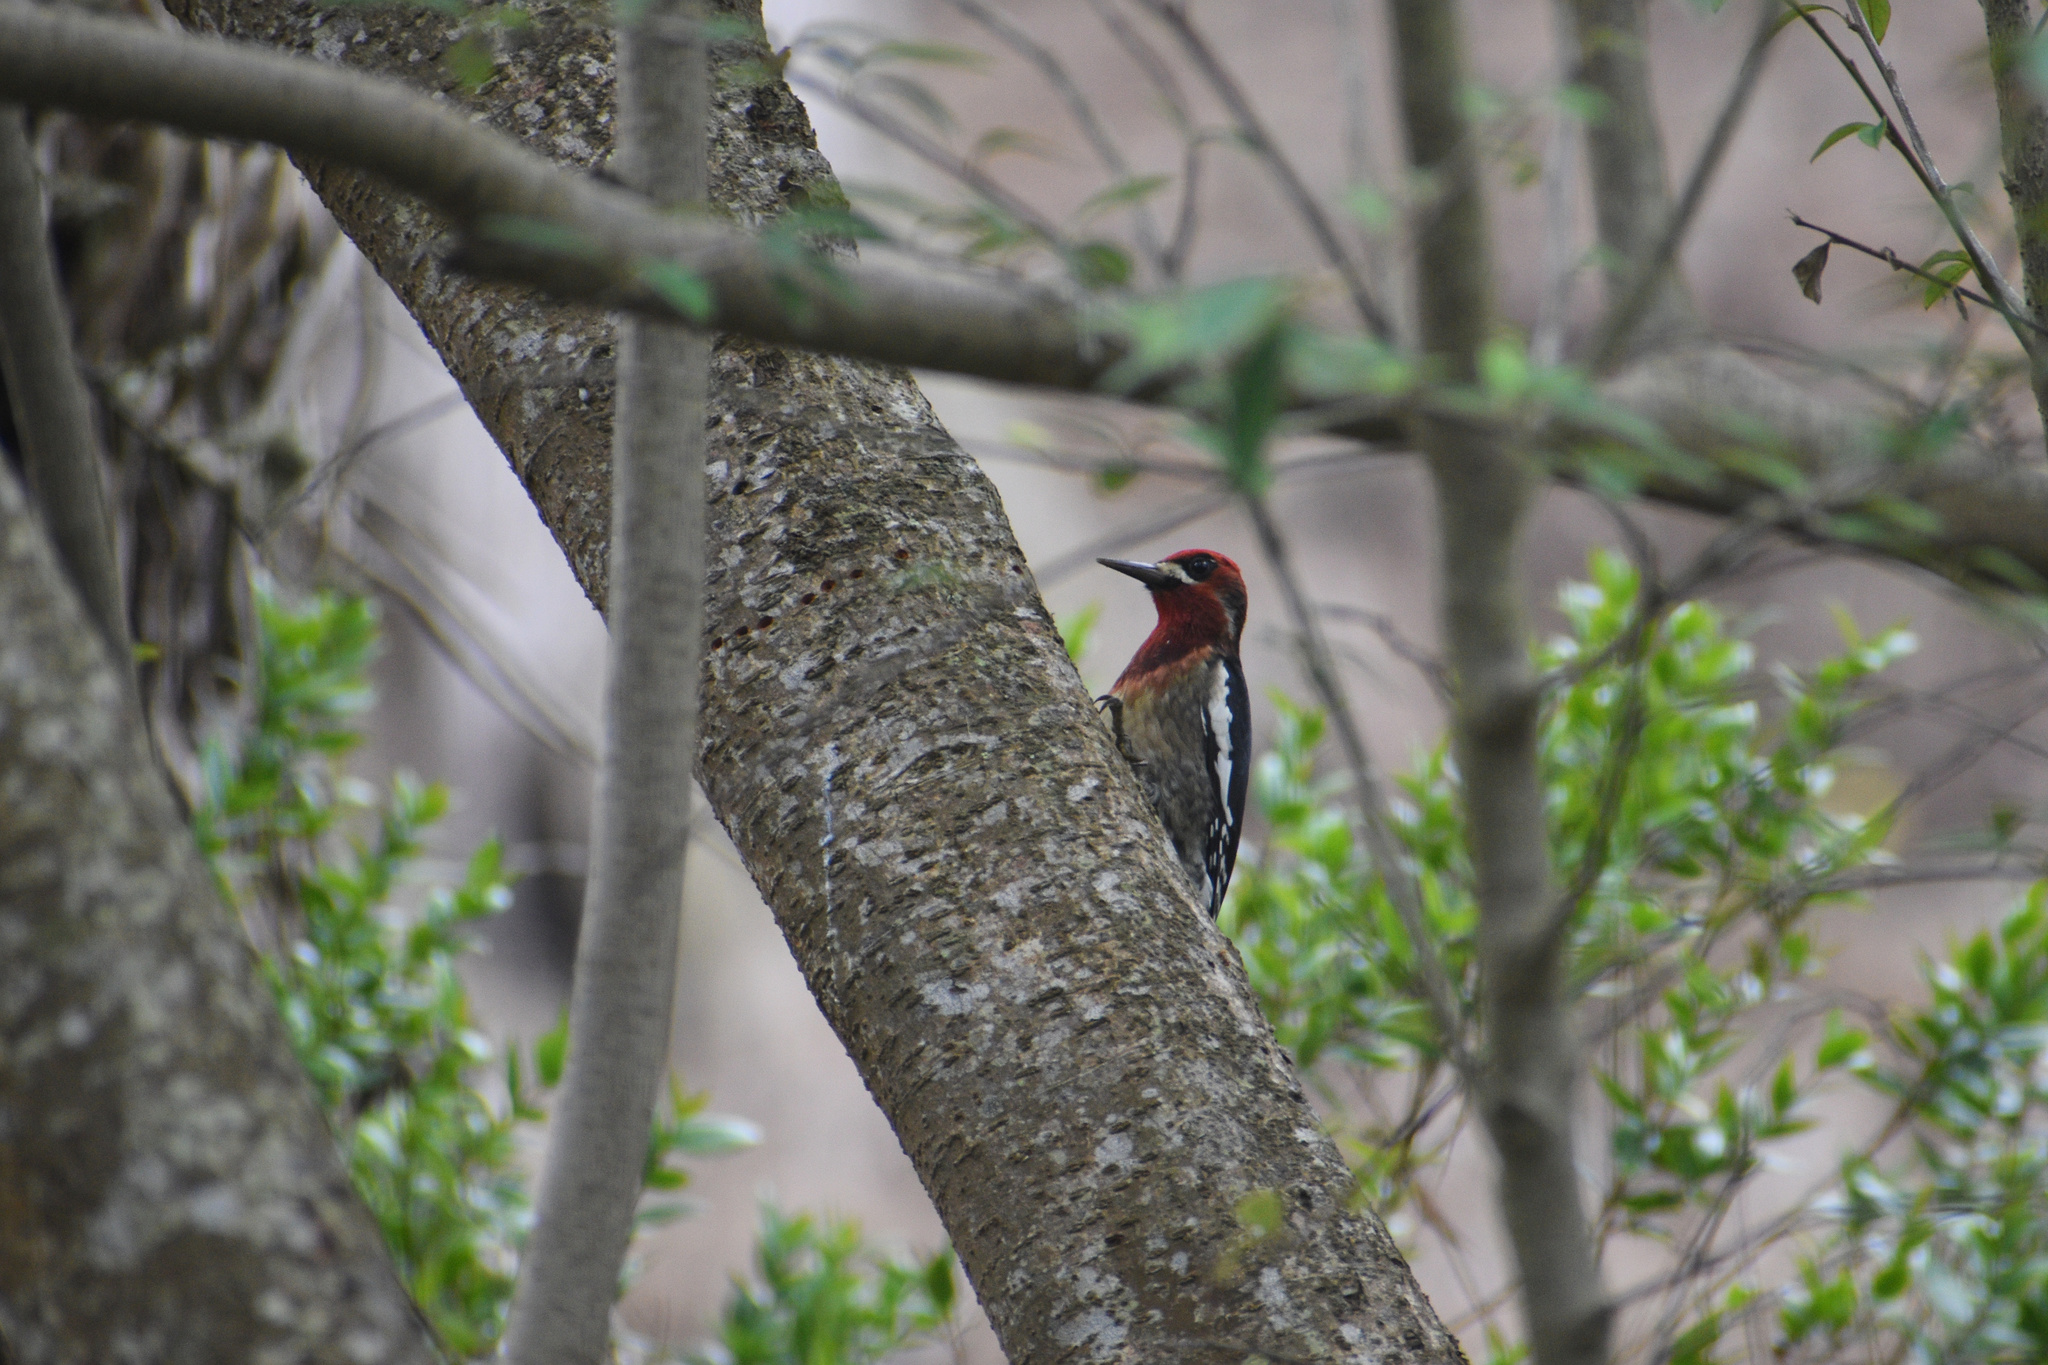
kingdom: Animalia
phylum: Chordata
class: Aves
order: Piciformes
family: Picidae
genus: Sphyrapicus
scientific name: Sphyrapicus ruber
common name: Red-breasted sapsucker
